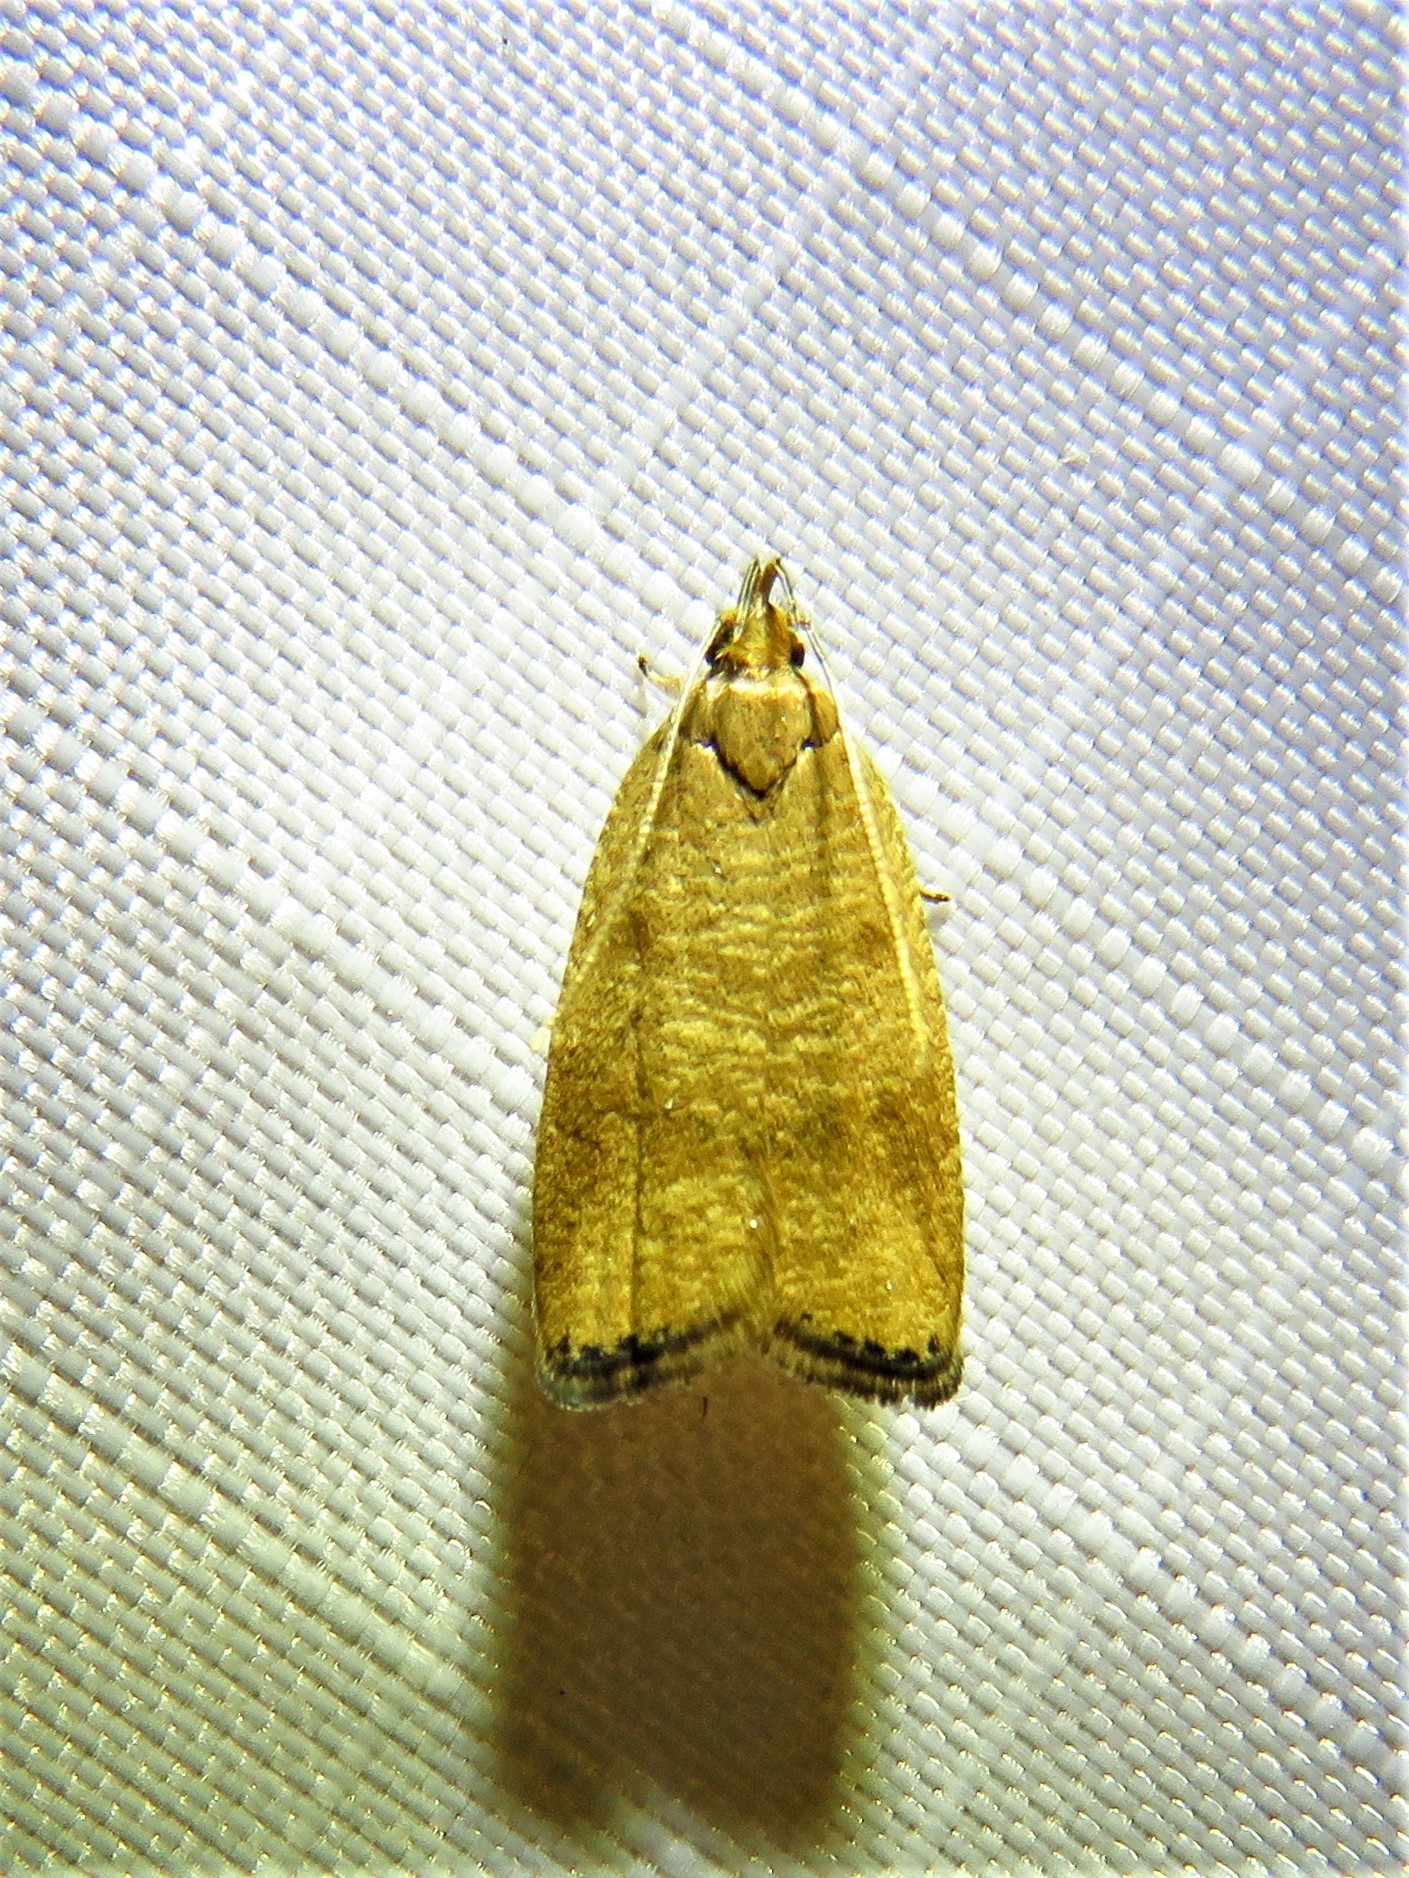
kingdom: Animalia
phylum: Arthropoda
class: Insecta
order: Lepidoptera
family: Depressariidae
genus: Psilocorsis
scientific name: Psilocorsis cryptolechiella
